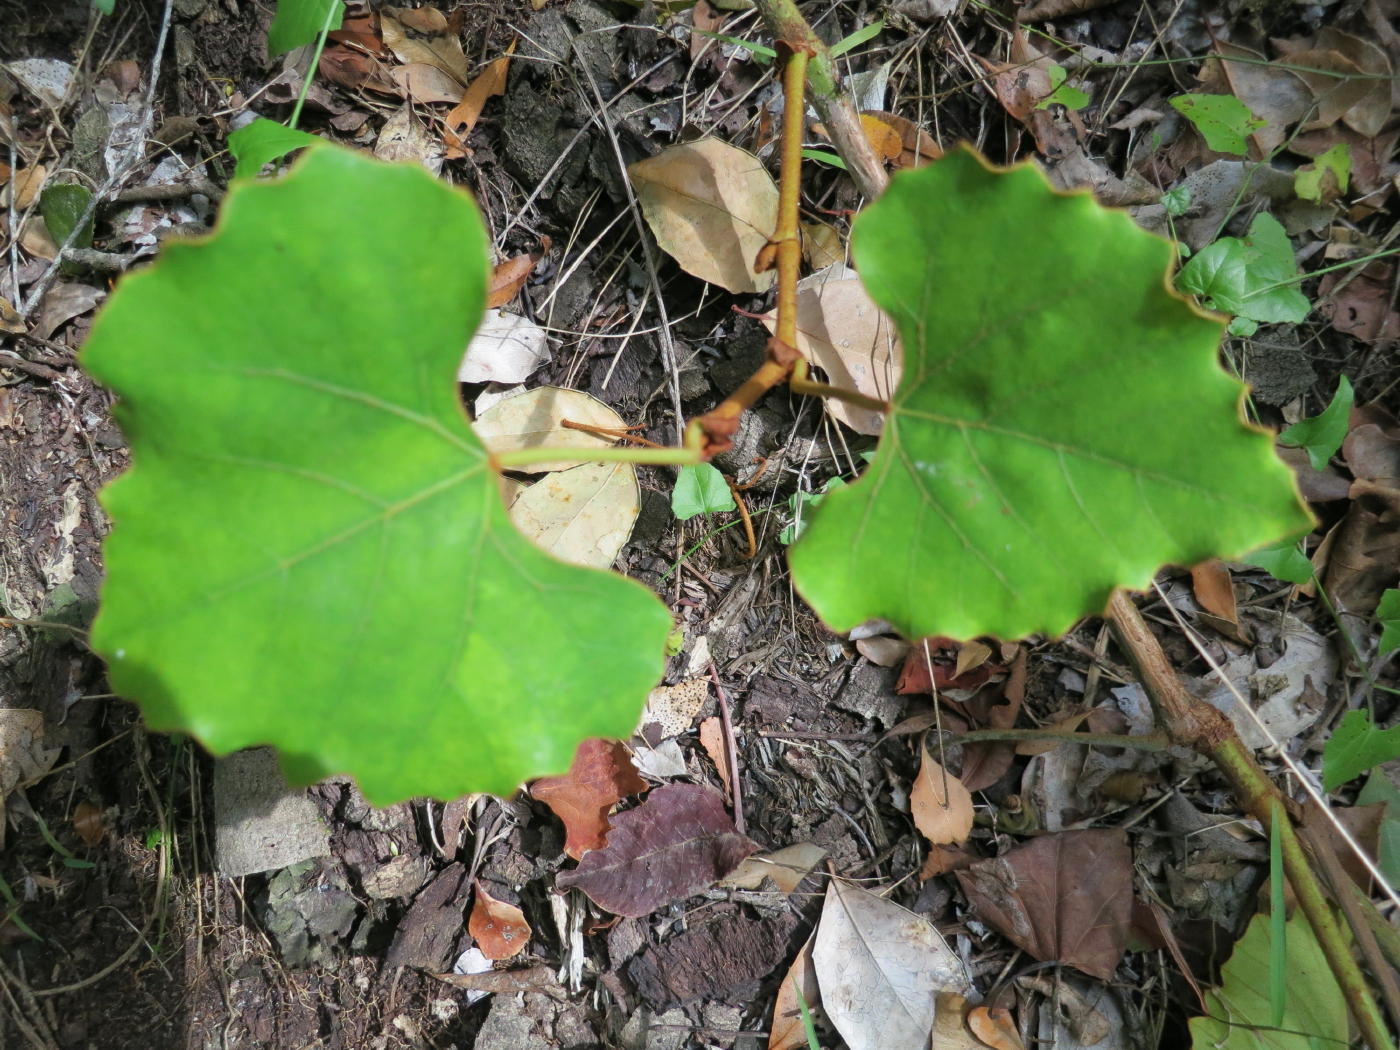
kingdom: Plantae
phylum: Tracheophyta
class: Magnoliopsida
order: Vitales
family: Vitaceae
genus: Rhoicissus
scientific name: Rhoicissus tomentosa
